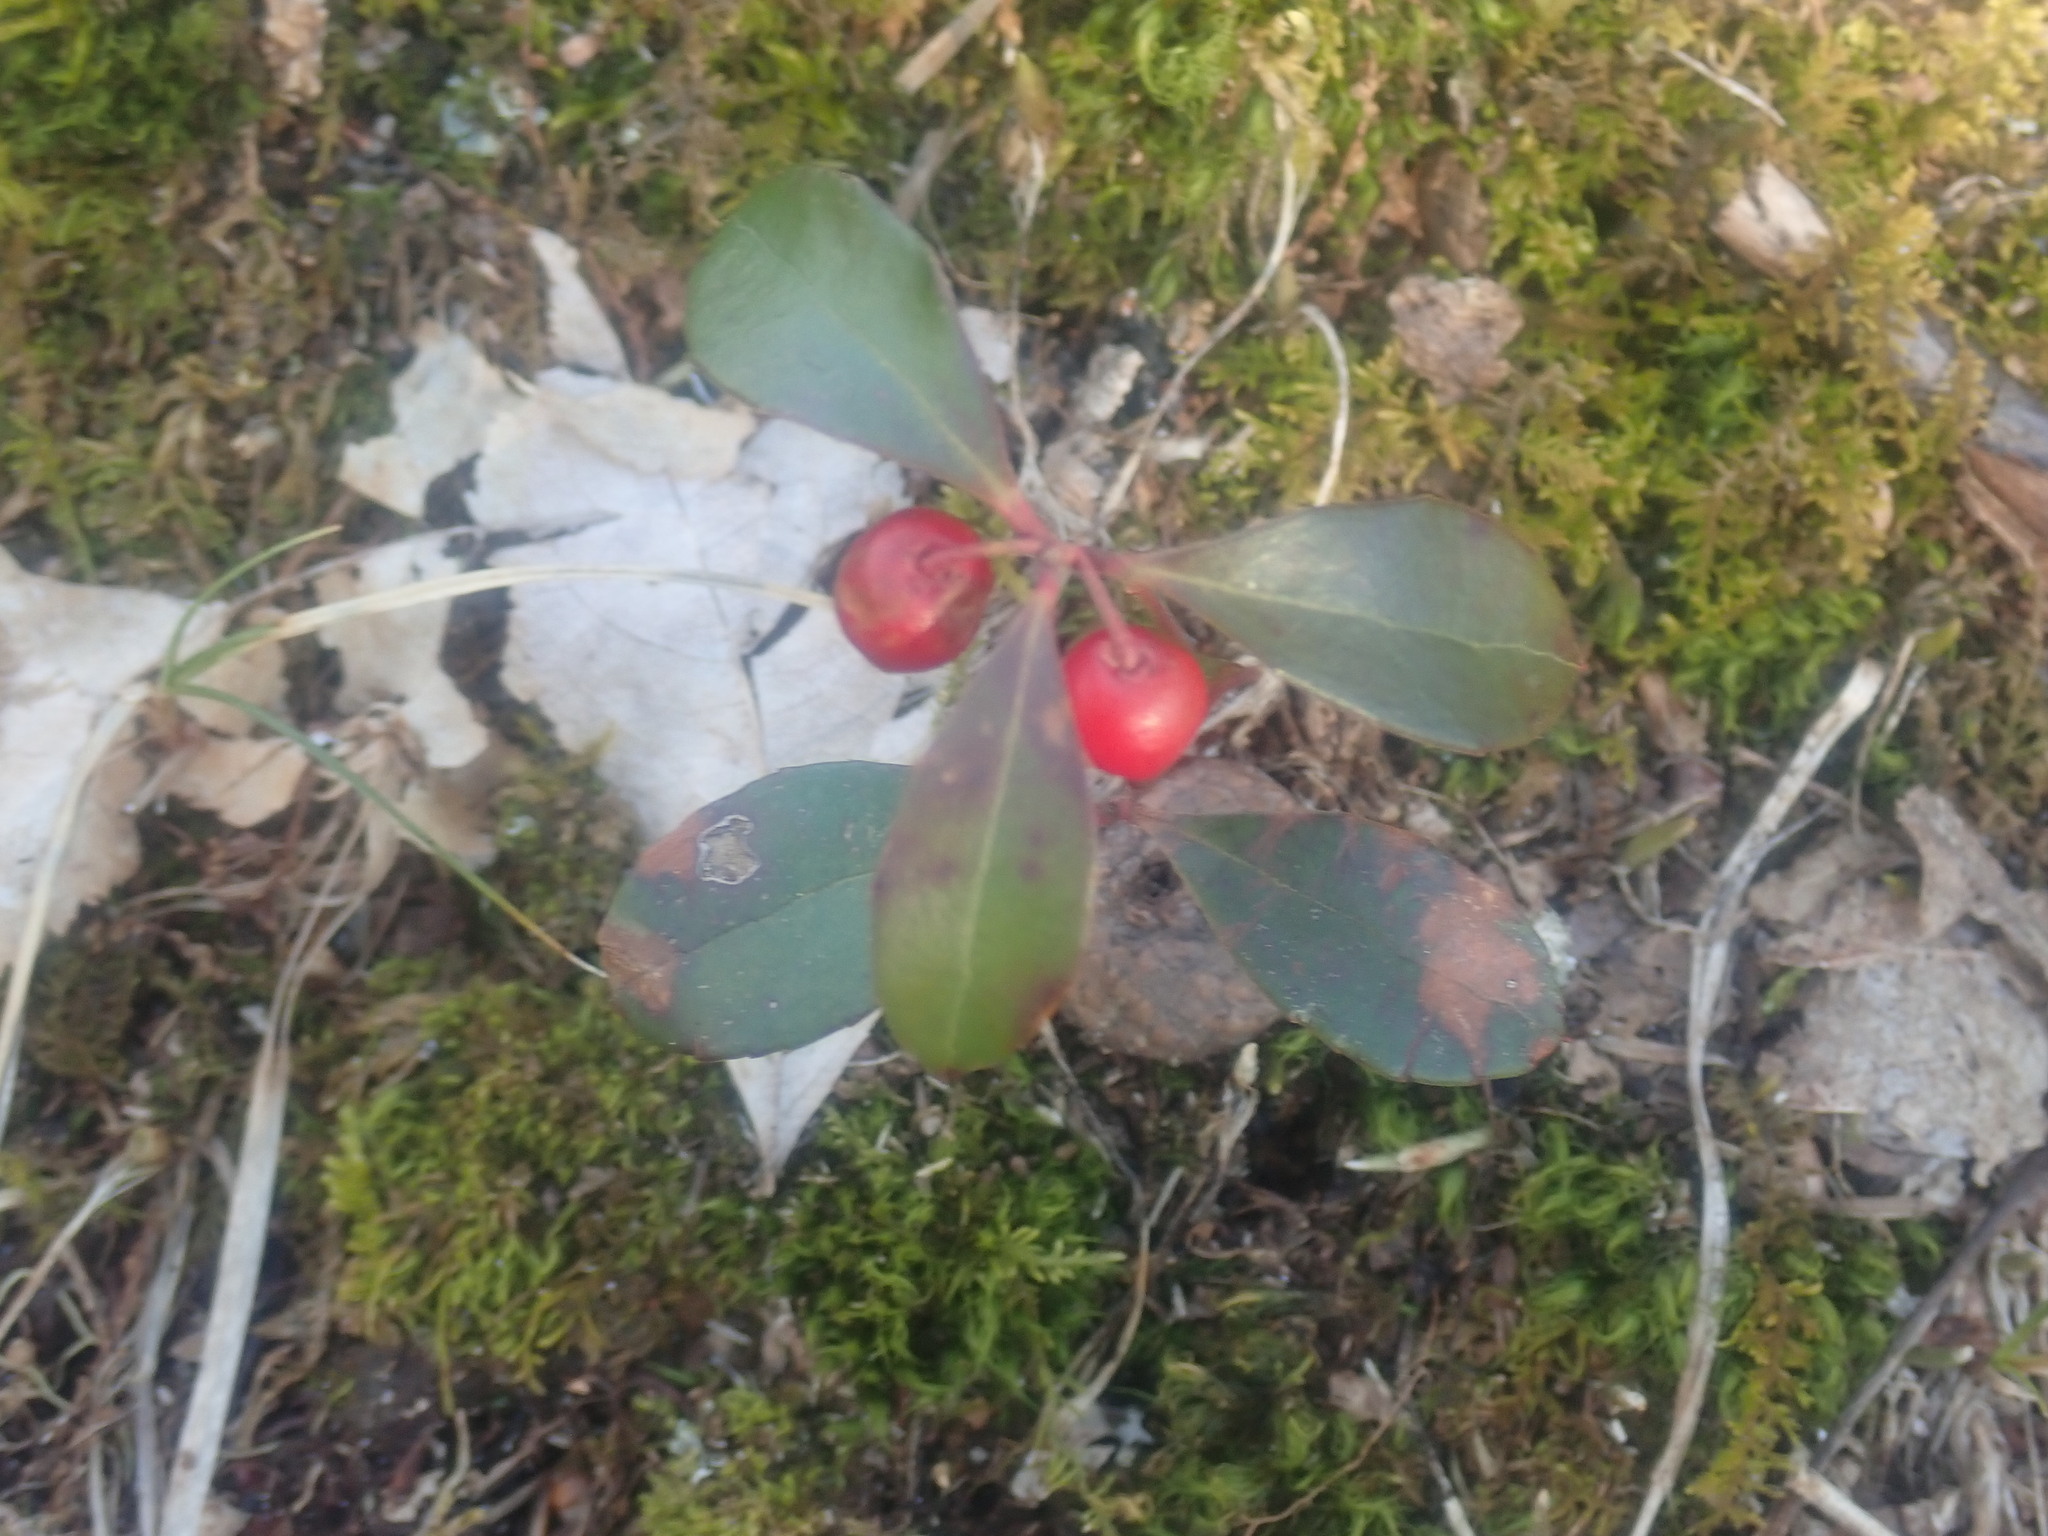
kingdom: Plantae
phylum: Tracheophyta
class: Magnoliopsida
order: Ericales
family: Ericaceae
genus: Gaultheria
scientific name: Gaultheria procumbens
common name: Checkerberry
